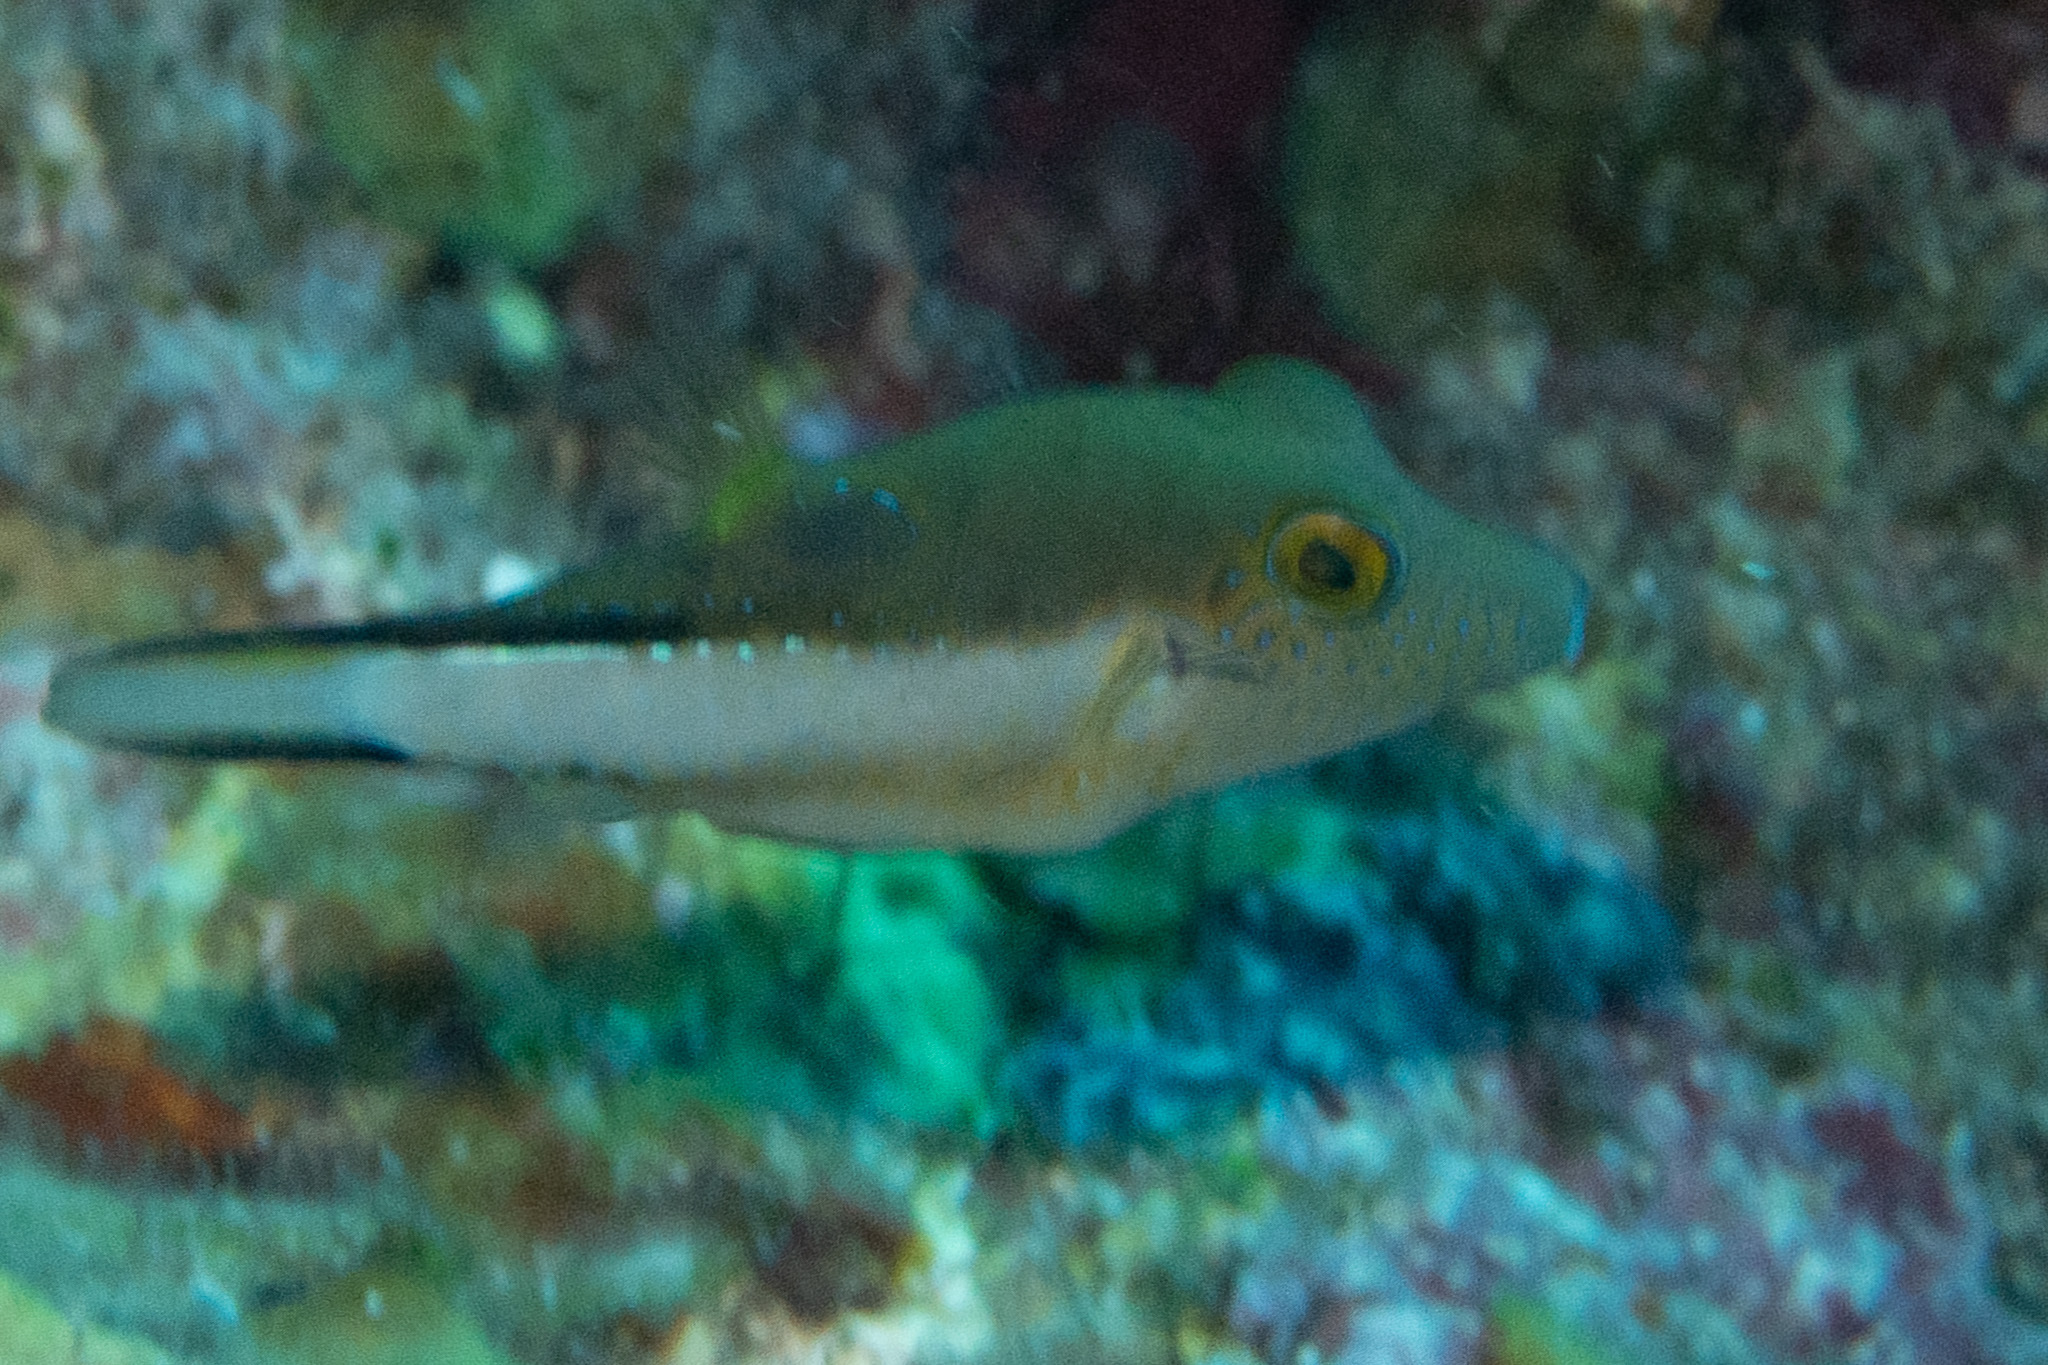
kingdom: Animalia
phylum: Chordata
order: Tetraodontiformes
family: Tetraodontidae
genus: Canthigaster
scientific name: Canthigaster rostrata
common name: Caribbean sharpnose-puffer
